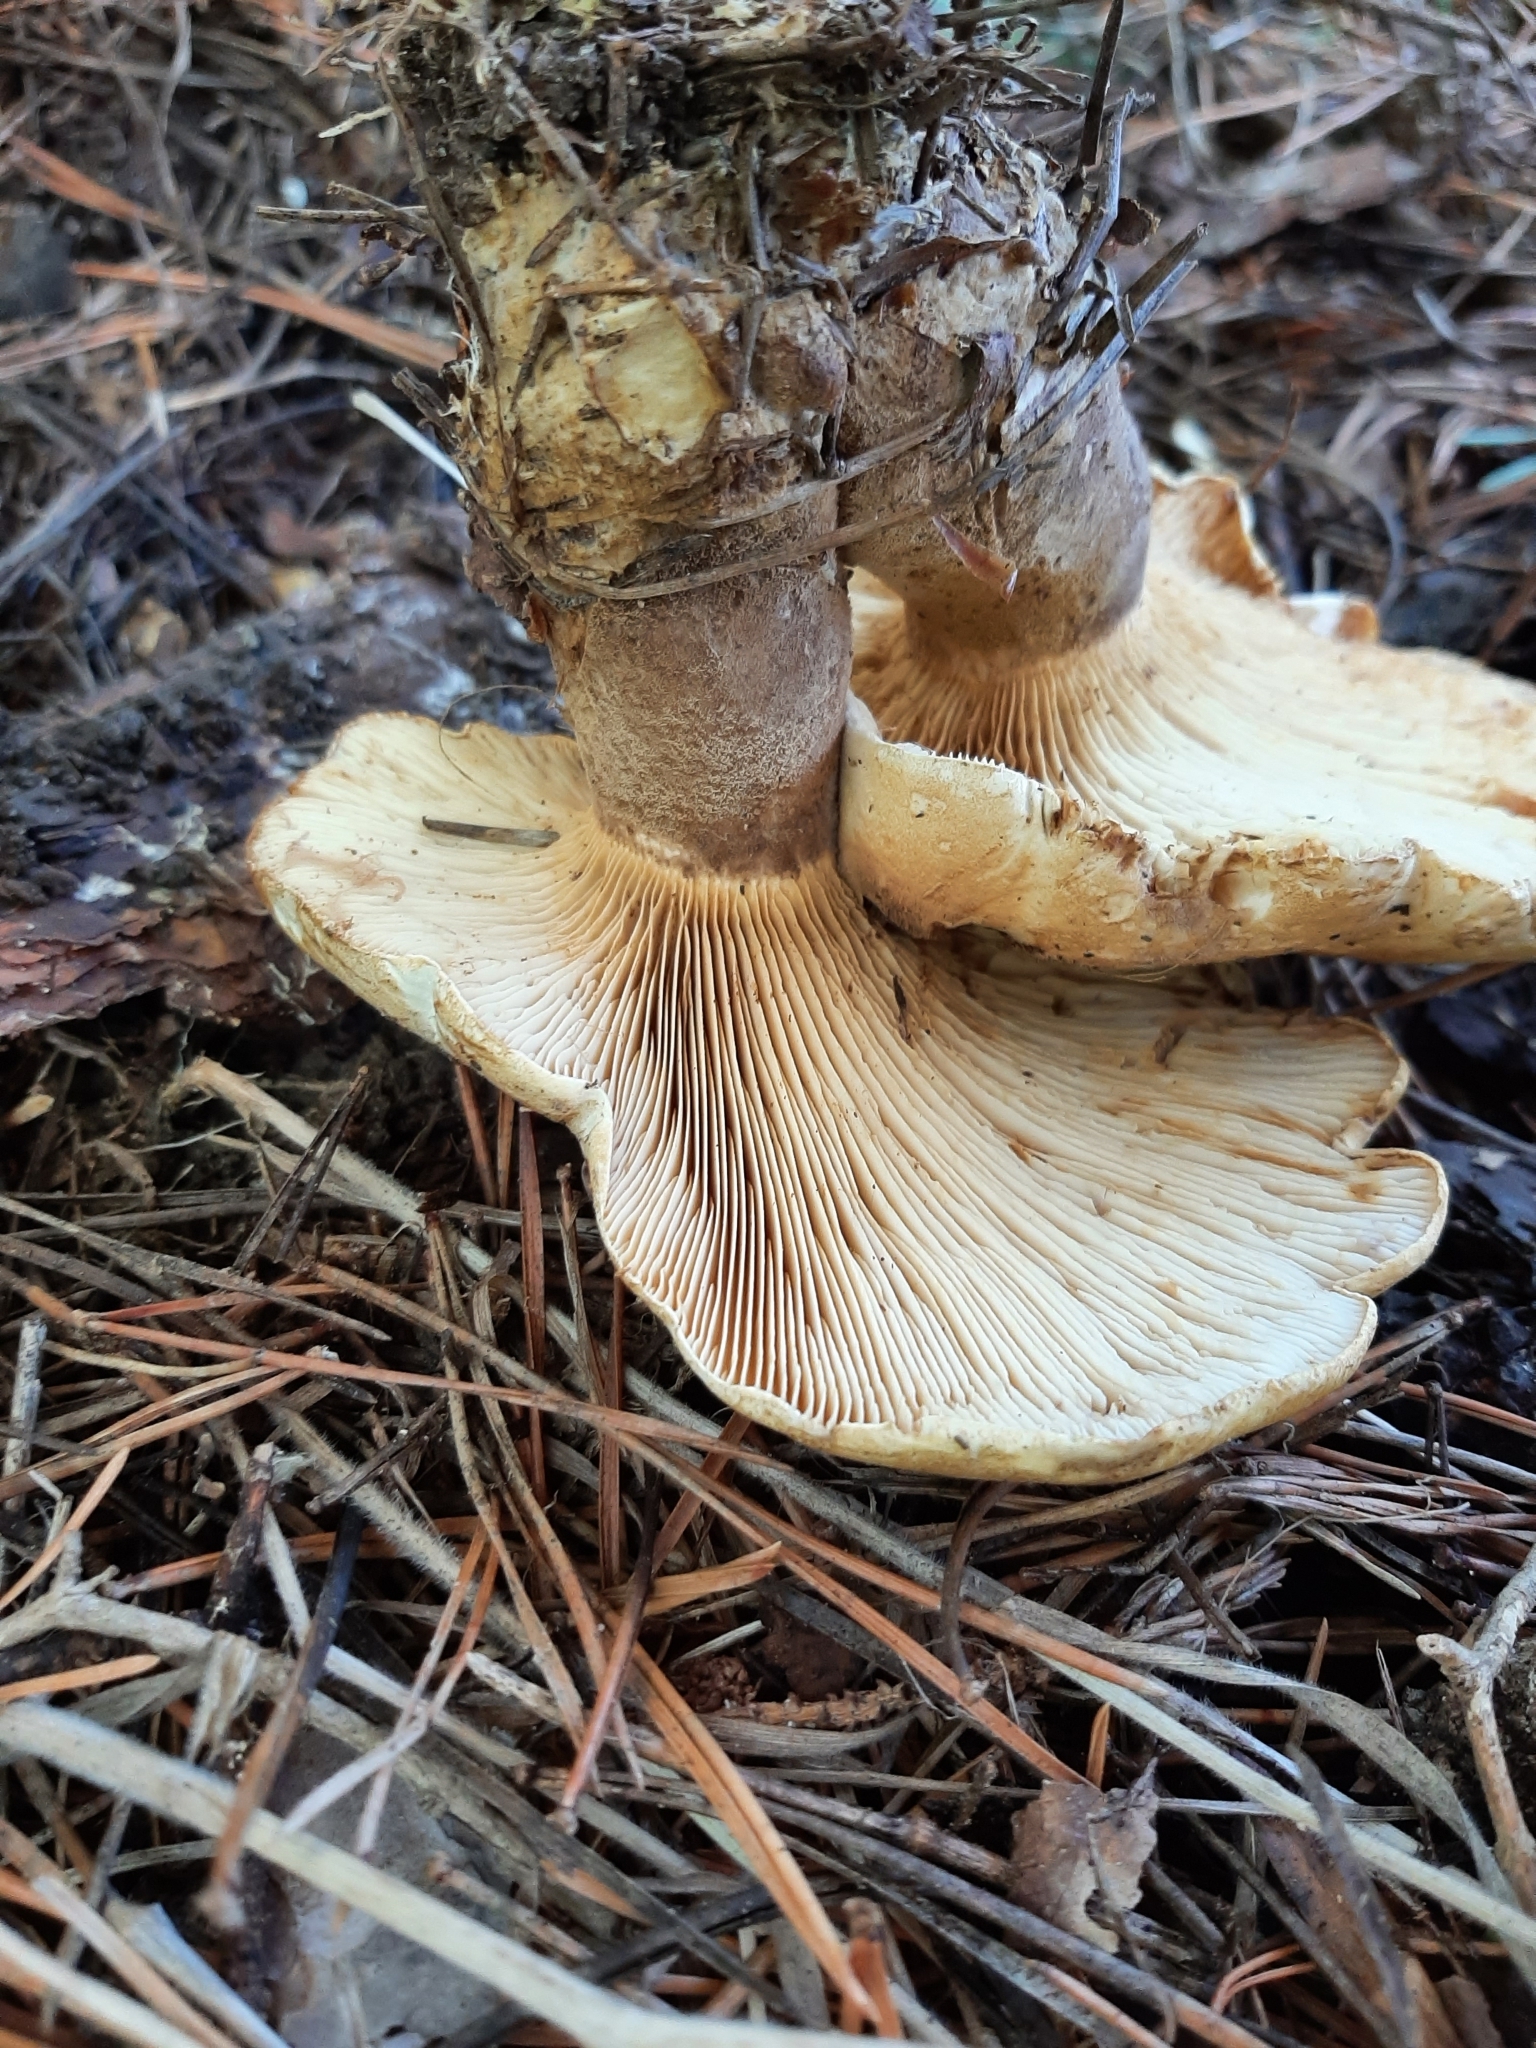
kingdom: Fungi
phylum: Basidiomycota
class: Agaricomycetes
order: Boletales
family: Tapinellaceae
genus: Tapinella
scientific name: Tapinella atrotomentosa
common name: Velvet rollrim
